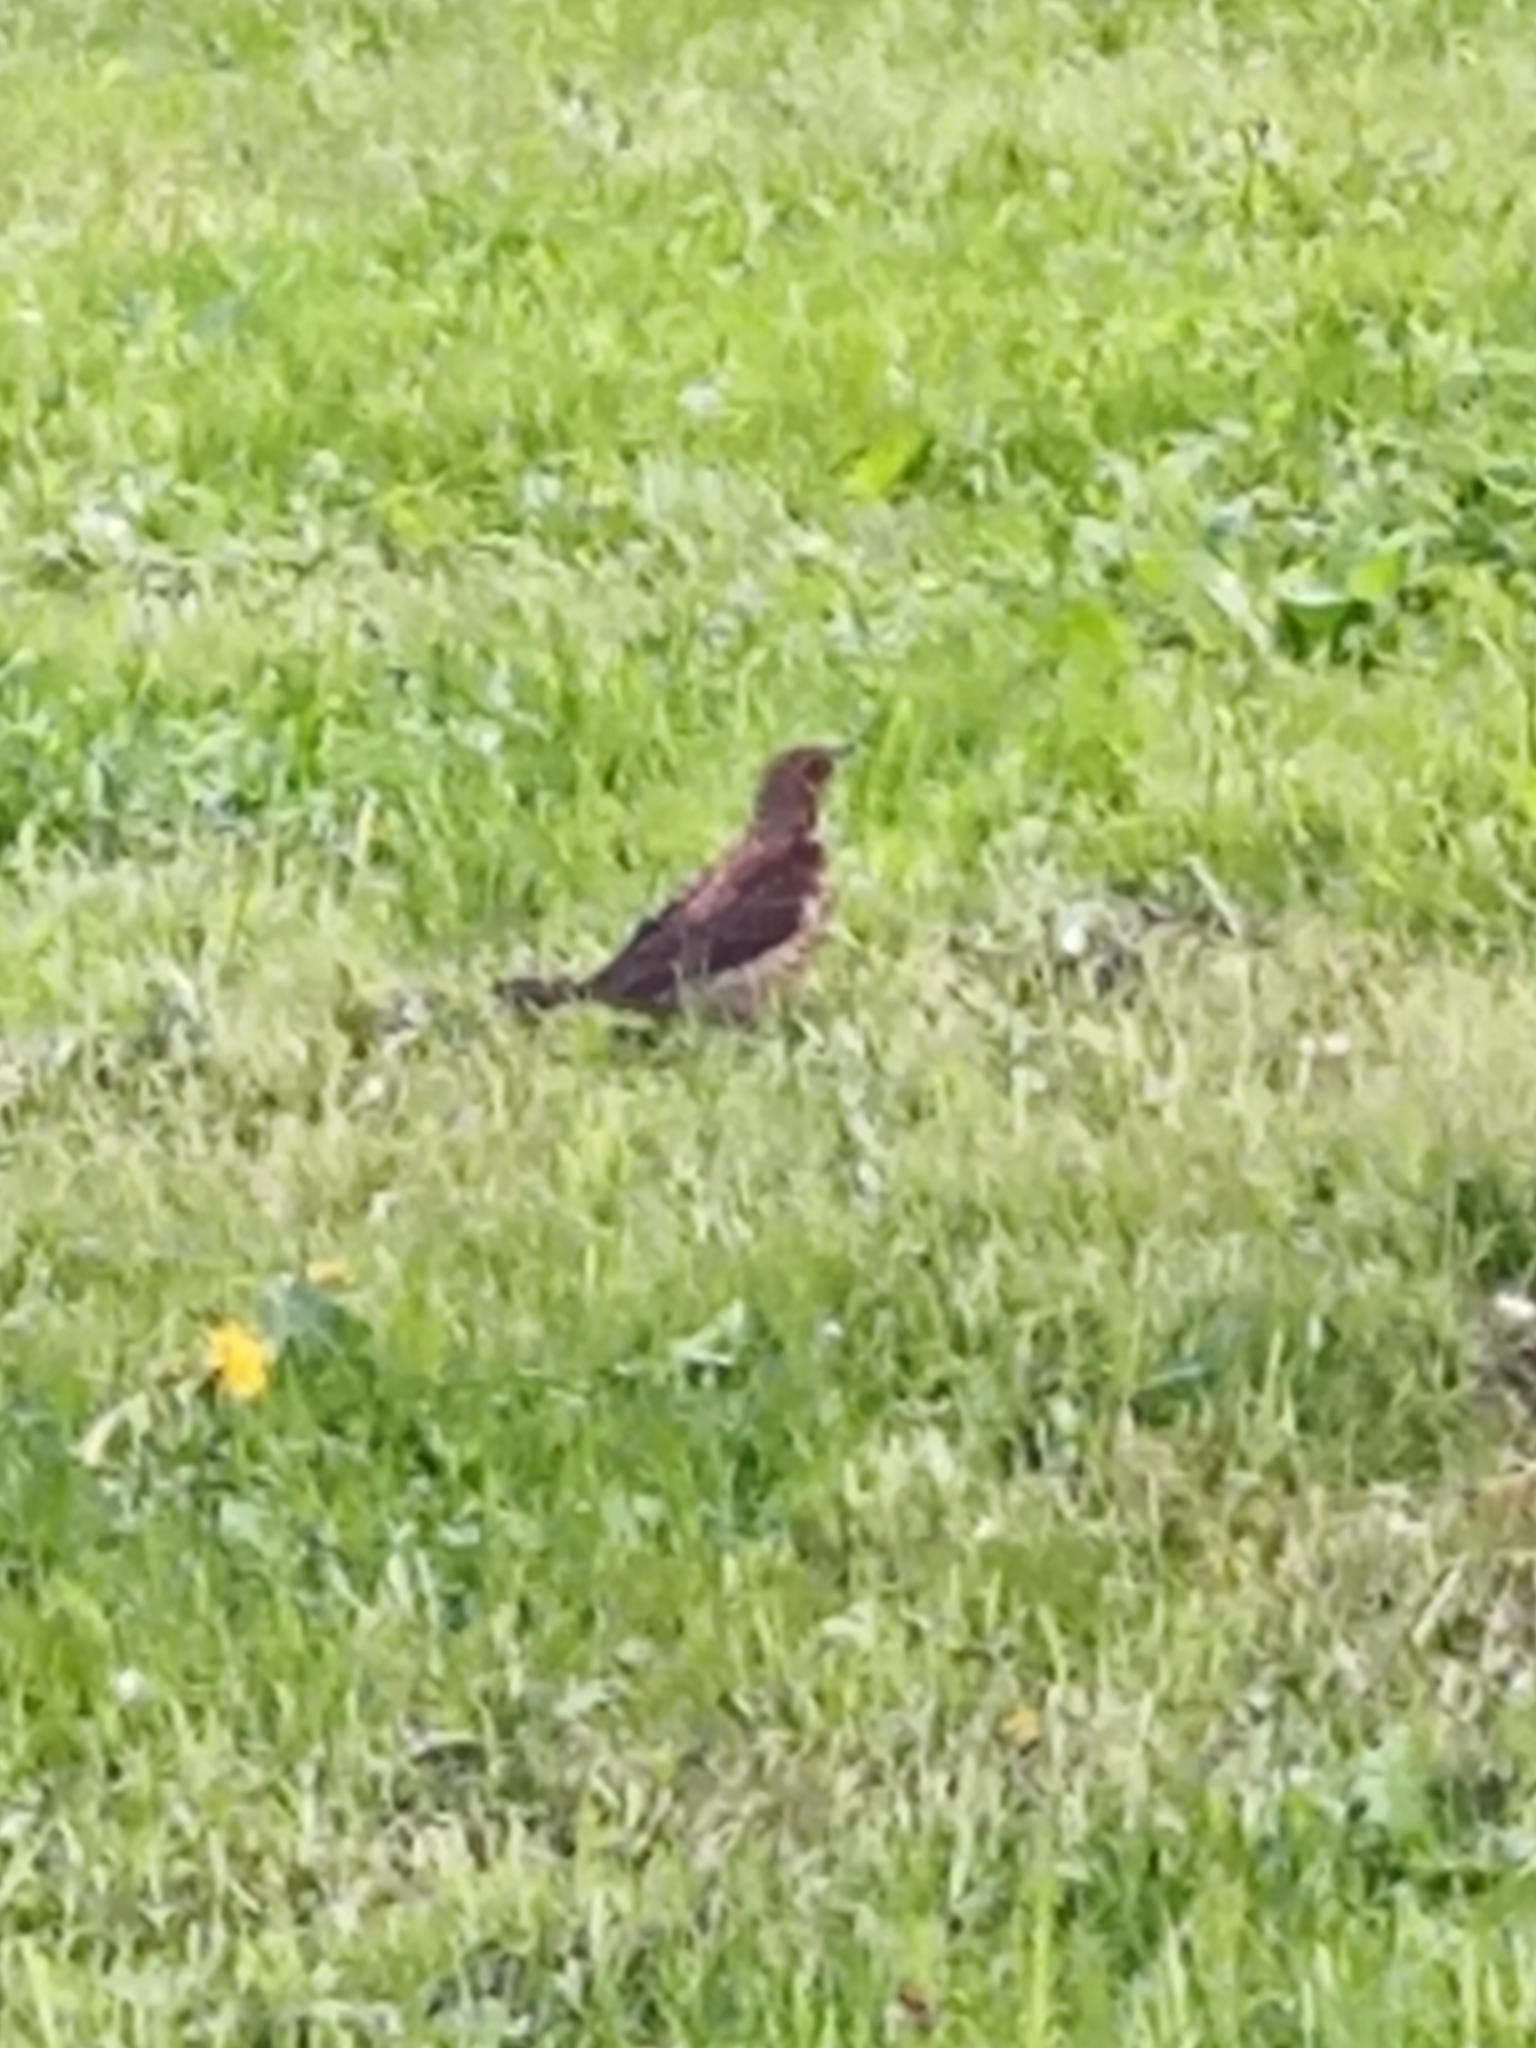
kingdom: Animalia
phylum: Chordata
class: Aves
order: Passeriformes
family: Turdidae
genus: Turdus
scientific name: Turdus pilaris
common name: Fieldfare
